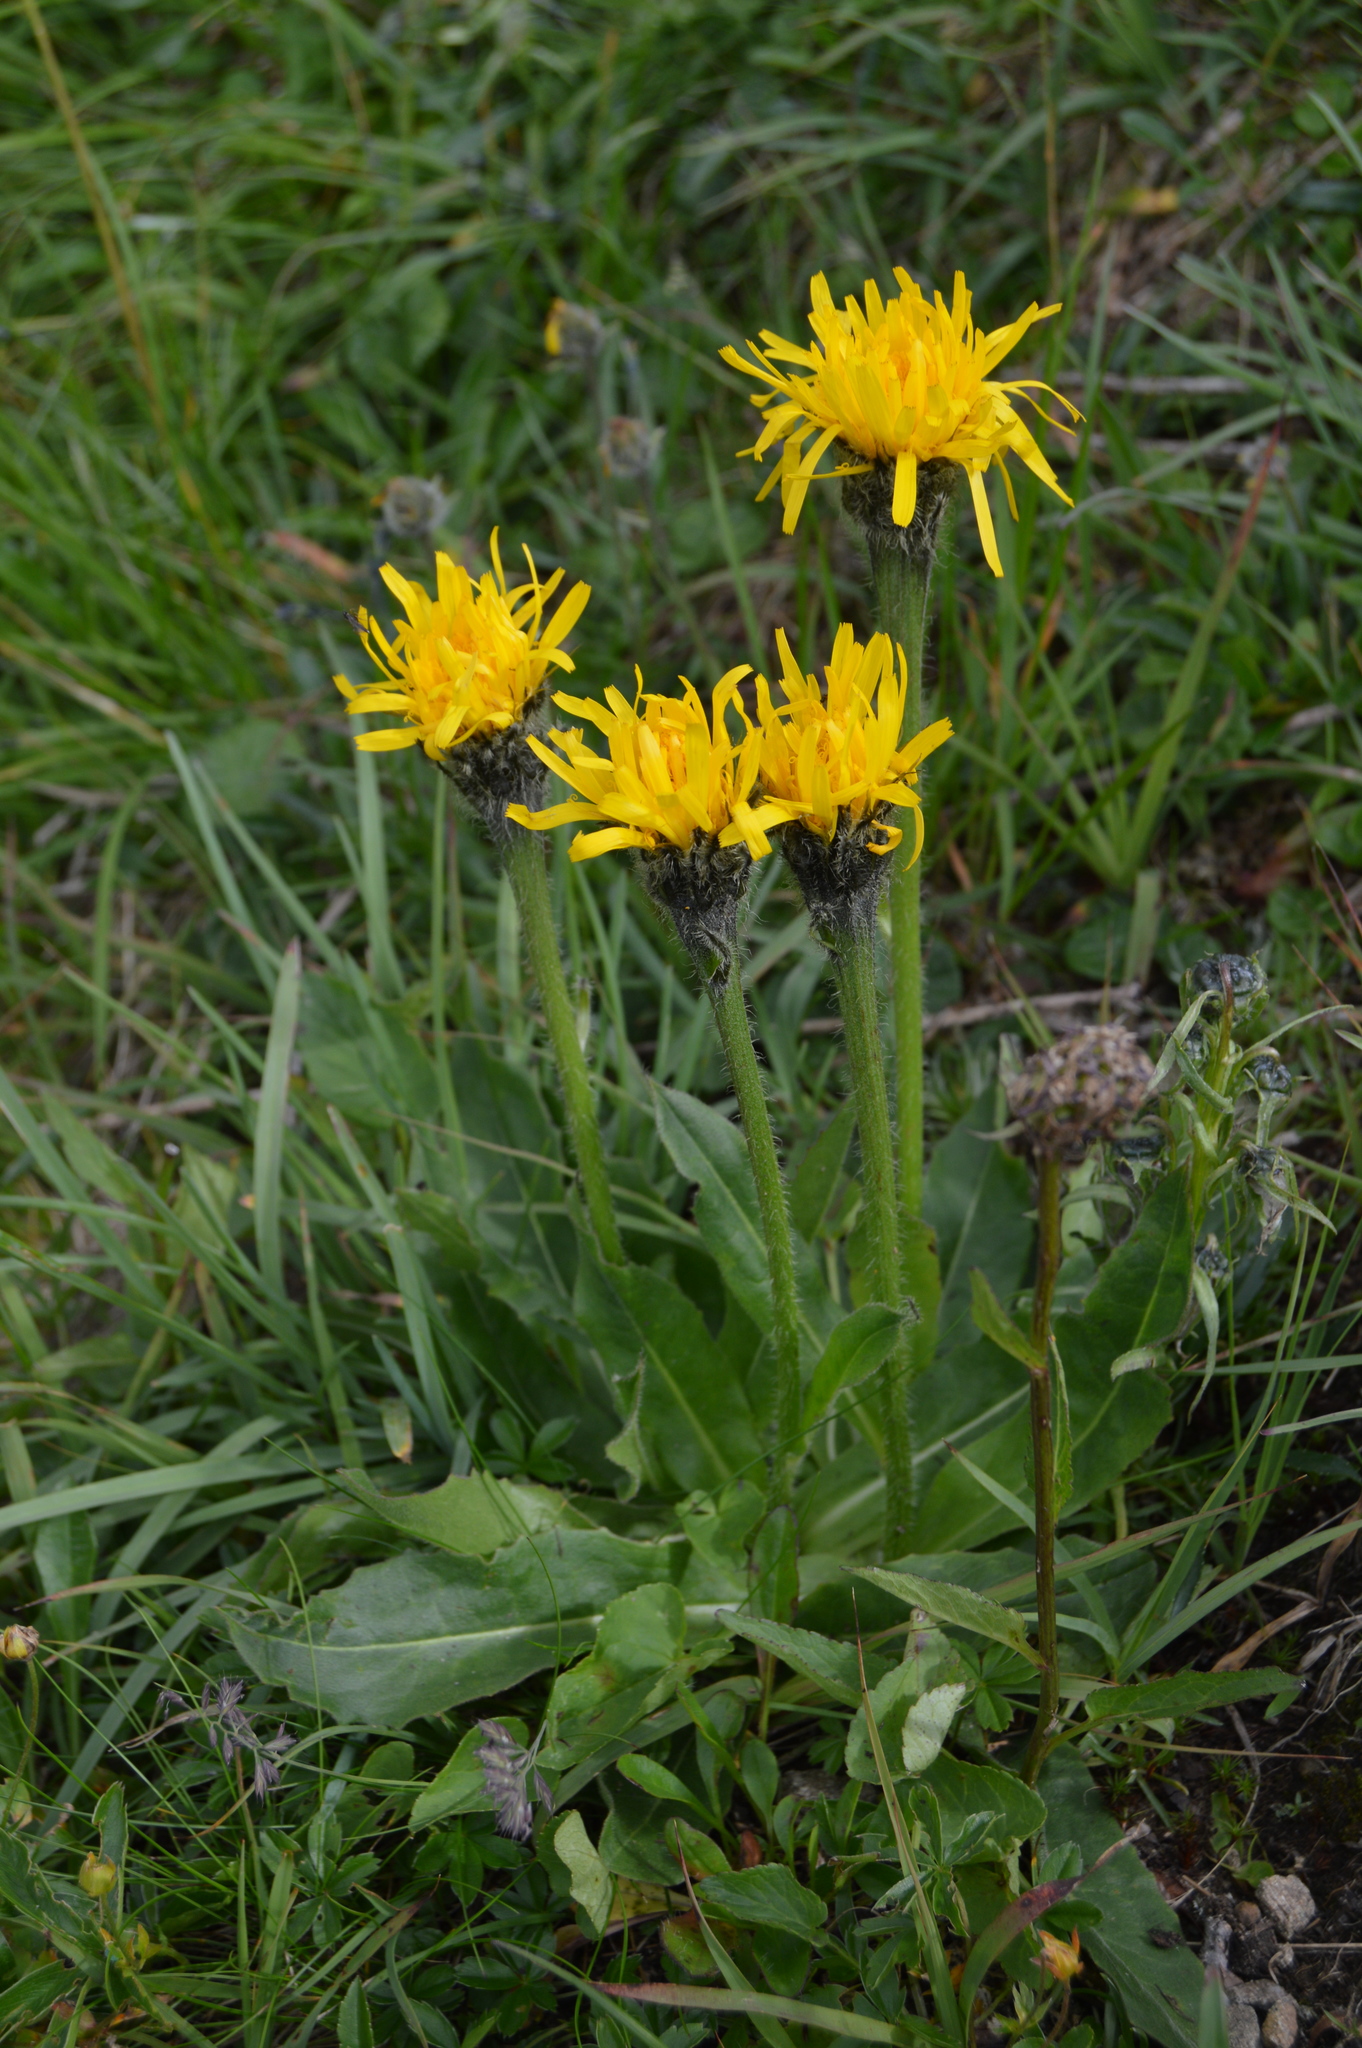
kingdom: Plantae
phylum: Tracheophyta
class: Magnoliopsida
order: Asterales
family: Asteraceae
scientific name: Asteraceae
